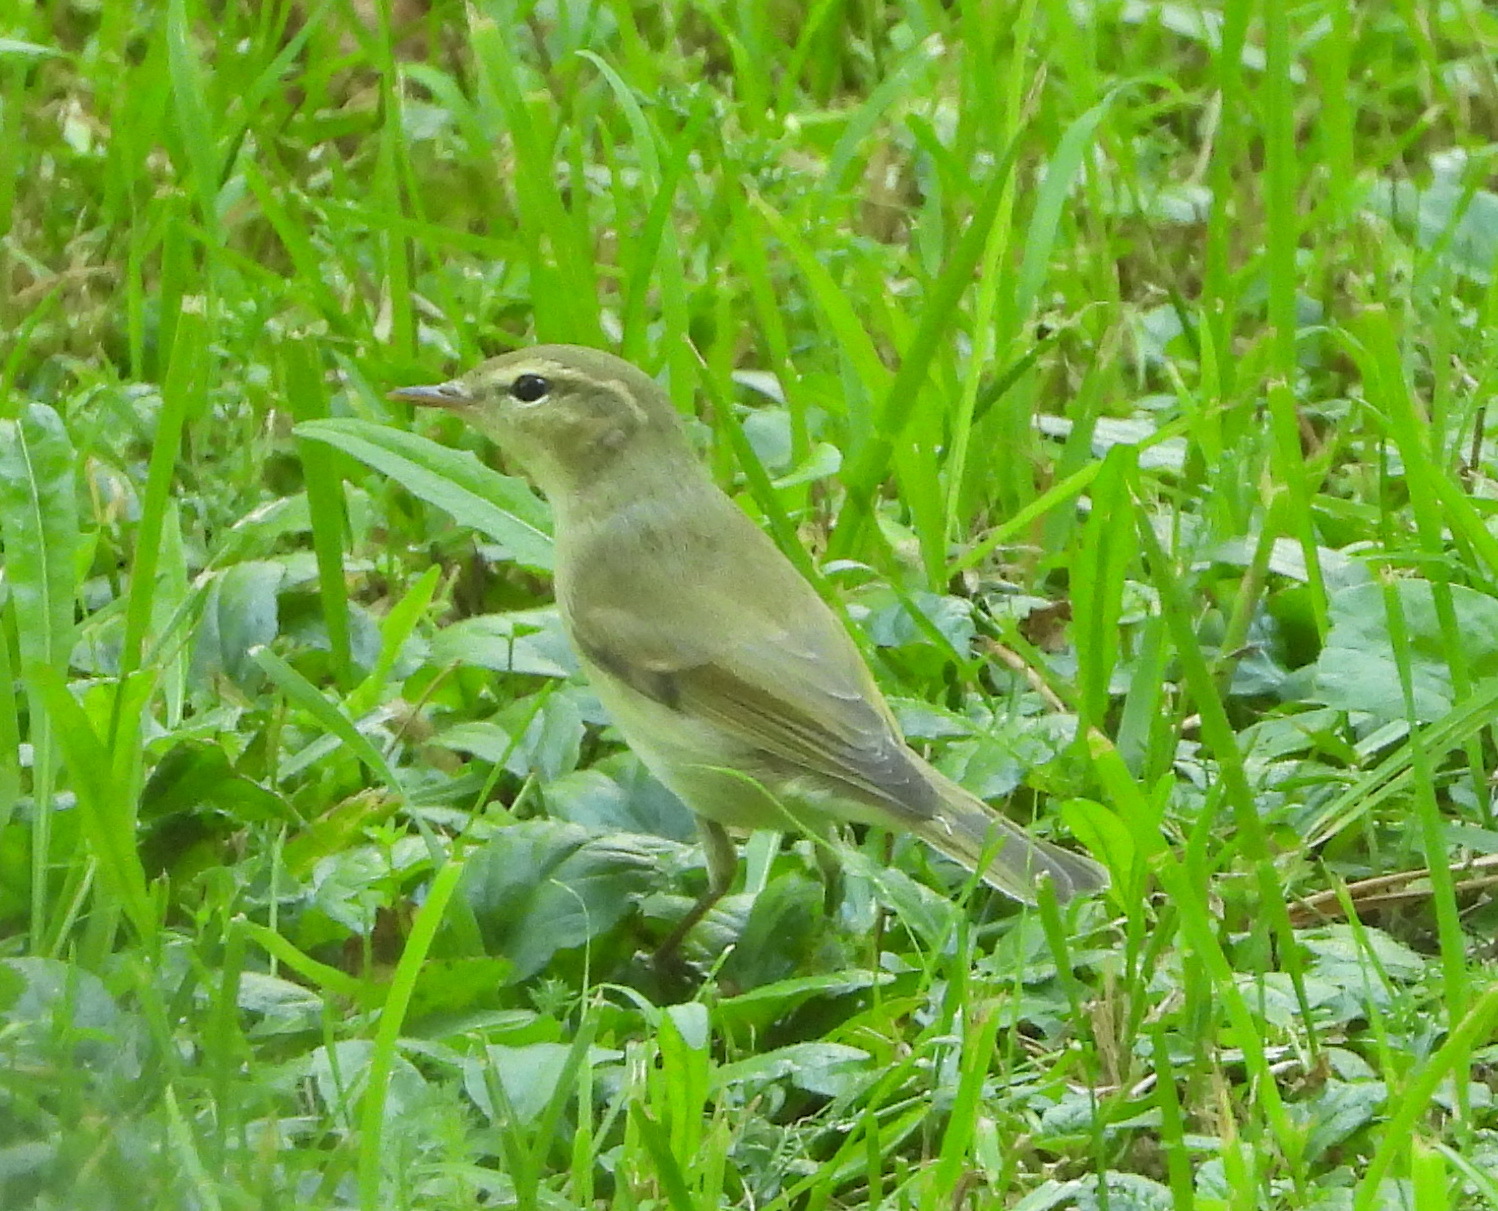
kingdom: Animalia
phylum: Chordata
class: Aves
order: Passeriformes
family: Phylloscopidae
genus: Phylloscopus
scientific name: Phylloscopus trochiloides
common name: Greenish warbler
